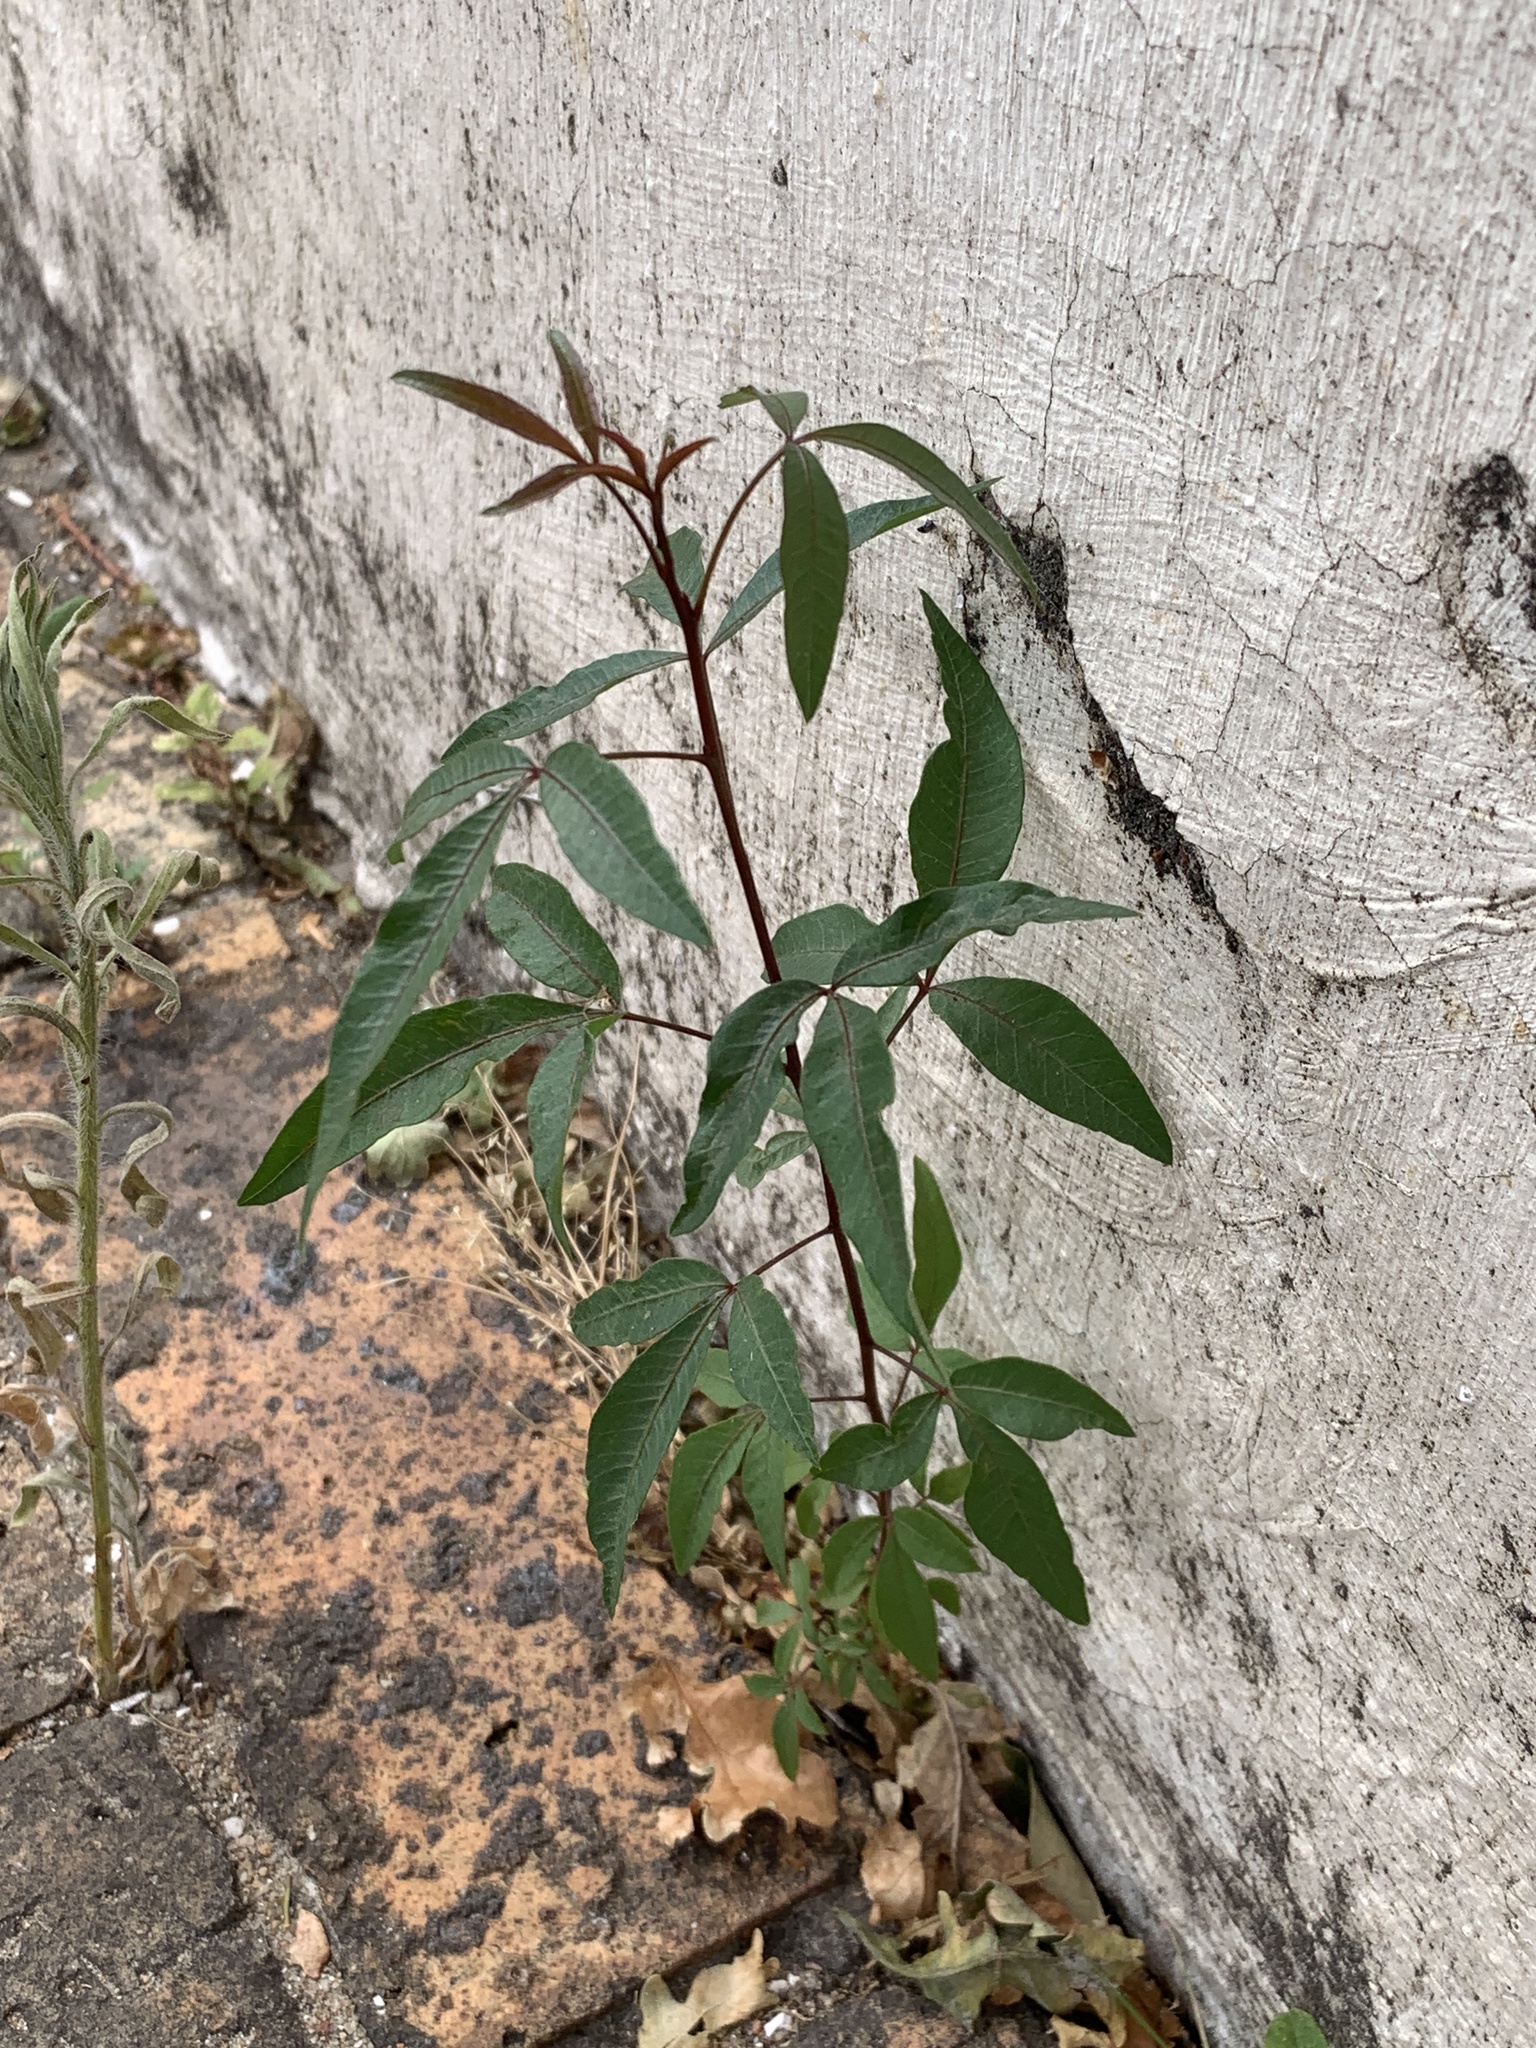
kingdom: Plantae
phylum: Tracheophyta
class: Magnoliopsida
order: Sapindales
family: Anacardiaceae
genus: Searsia
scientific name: Searsia pendulina
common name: White karee
